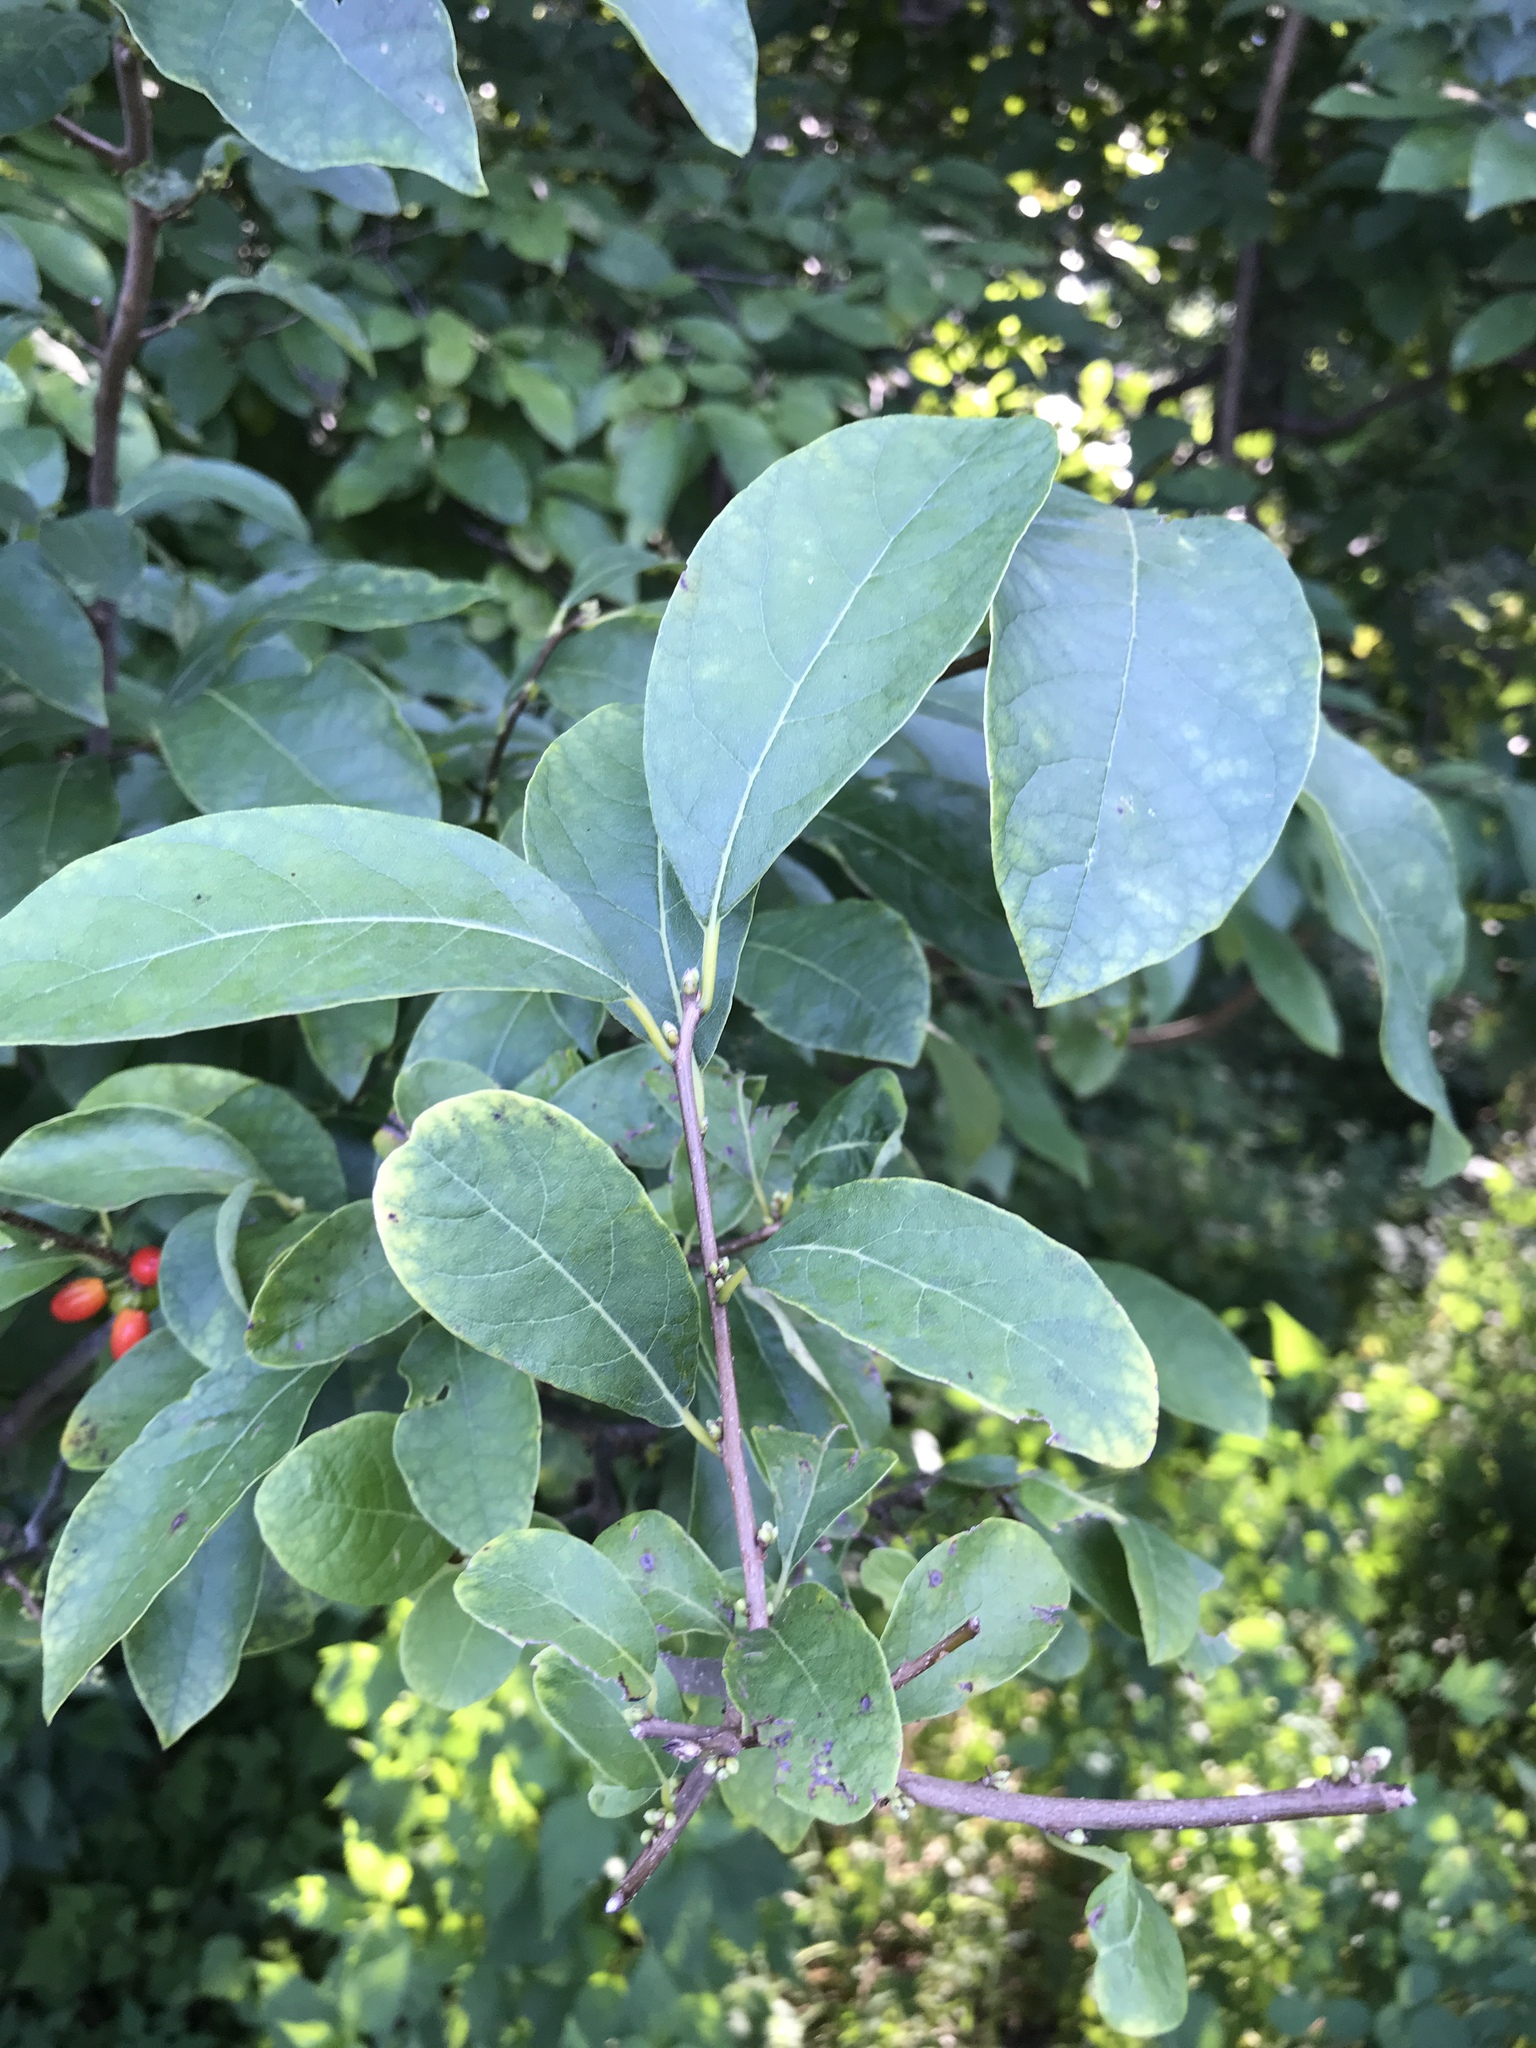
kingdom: Plantae
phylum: Tracheophyta
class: Magnoliopsida
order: Laurales
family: Lauraceae
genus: Lindera
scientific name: Lindera benzoin
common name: Spicebush
